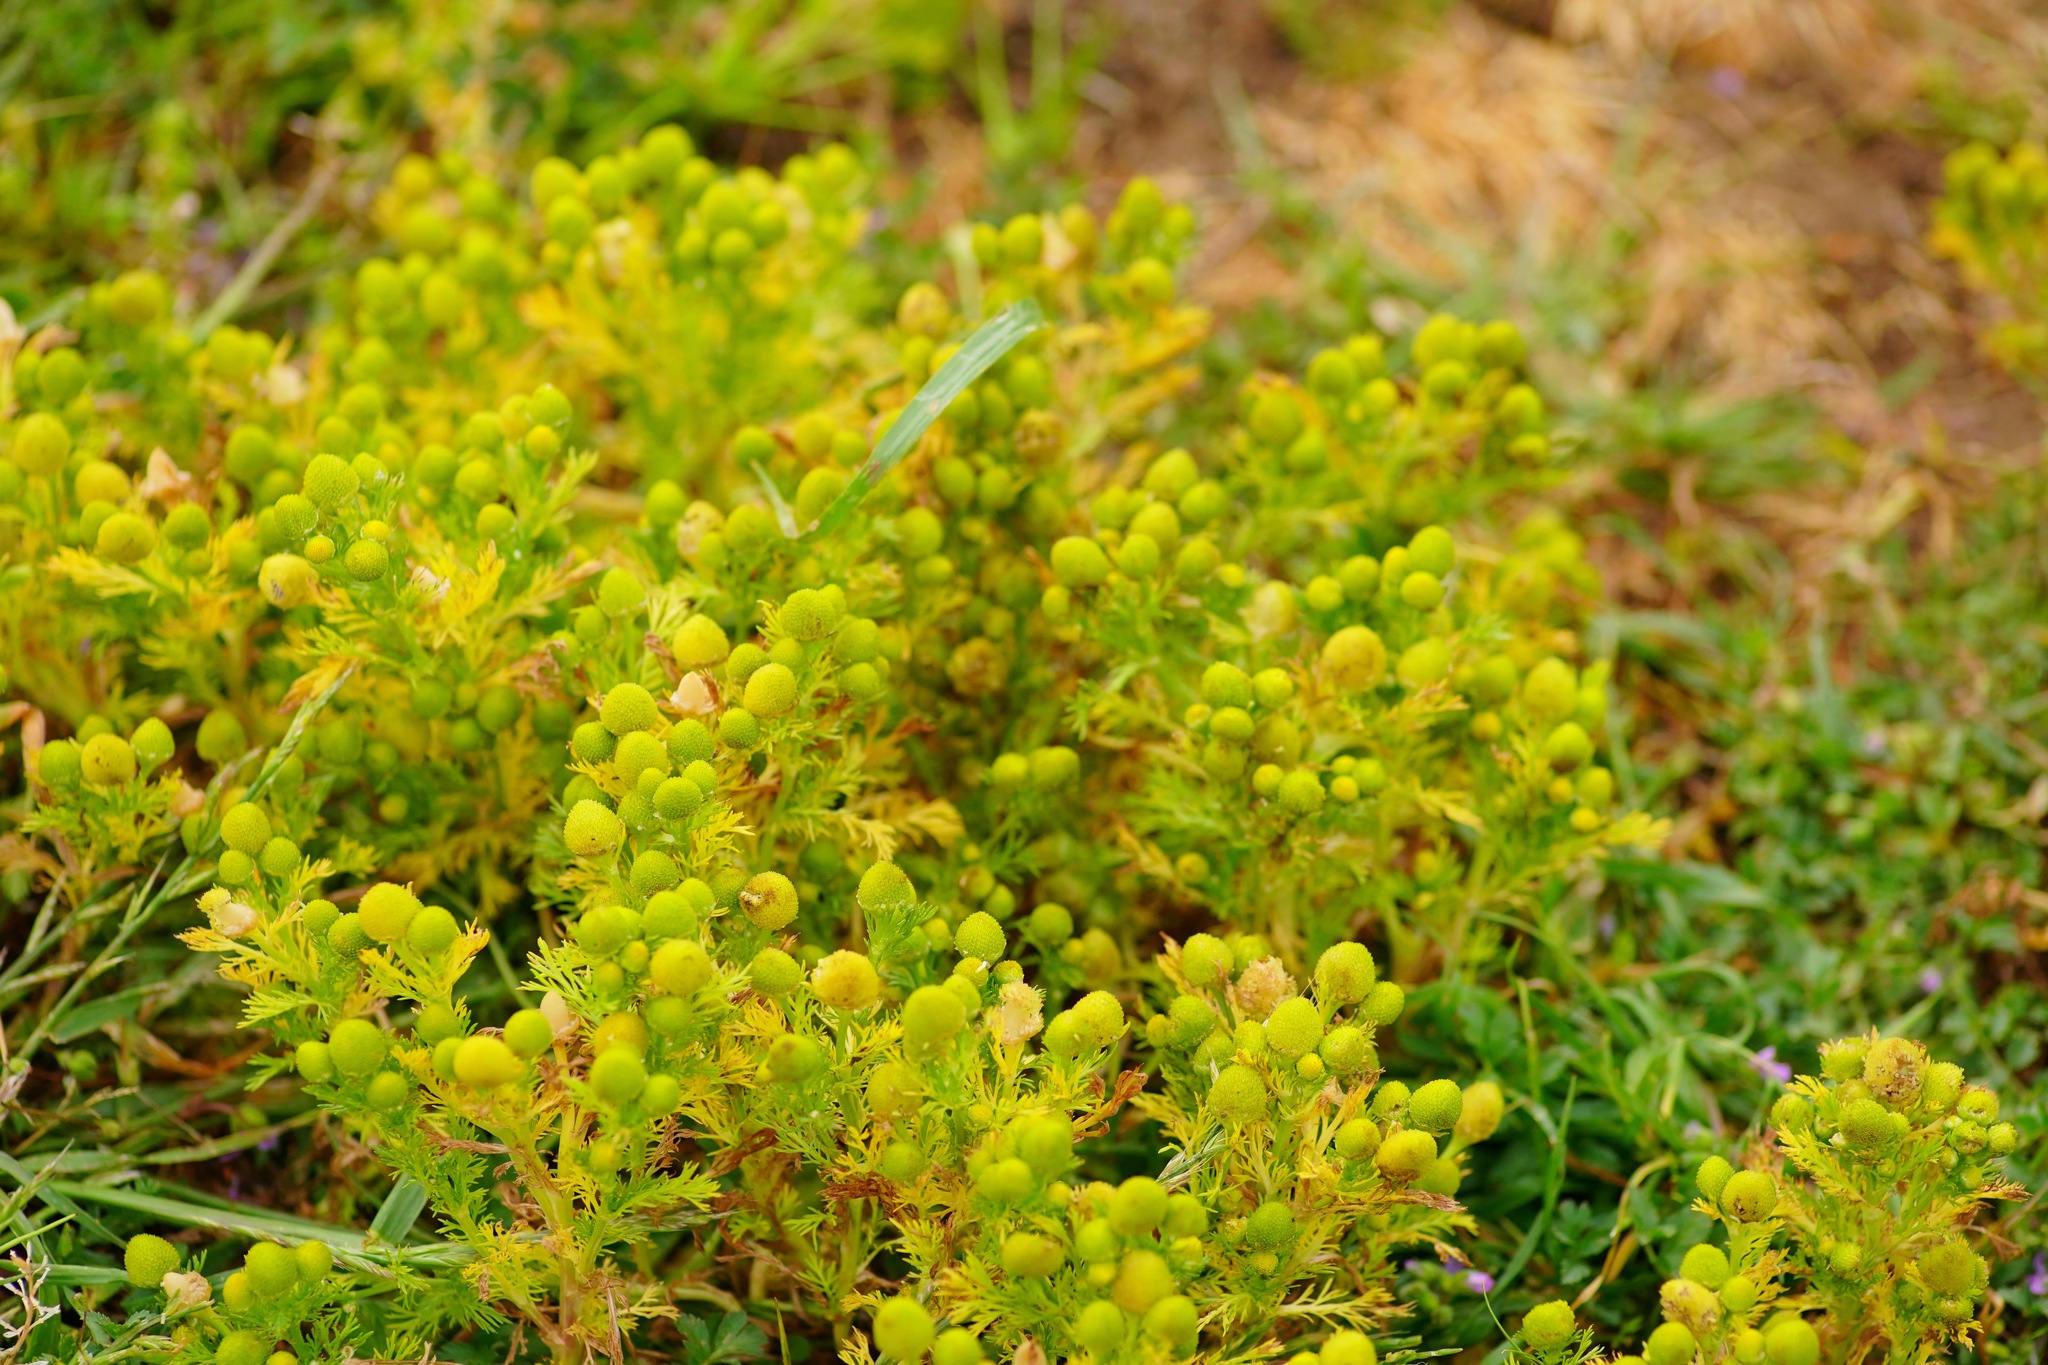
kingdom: Plantae
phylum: Tracheophyta
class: Magnoliopsida
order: Asterales
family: Asteraceae
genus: Matricaria
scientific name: Matricaria discoidea
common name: Disc mayweed
